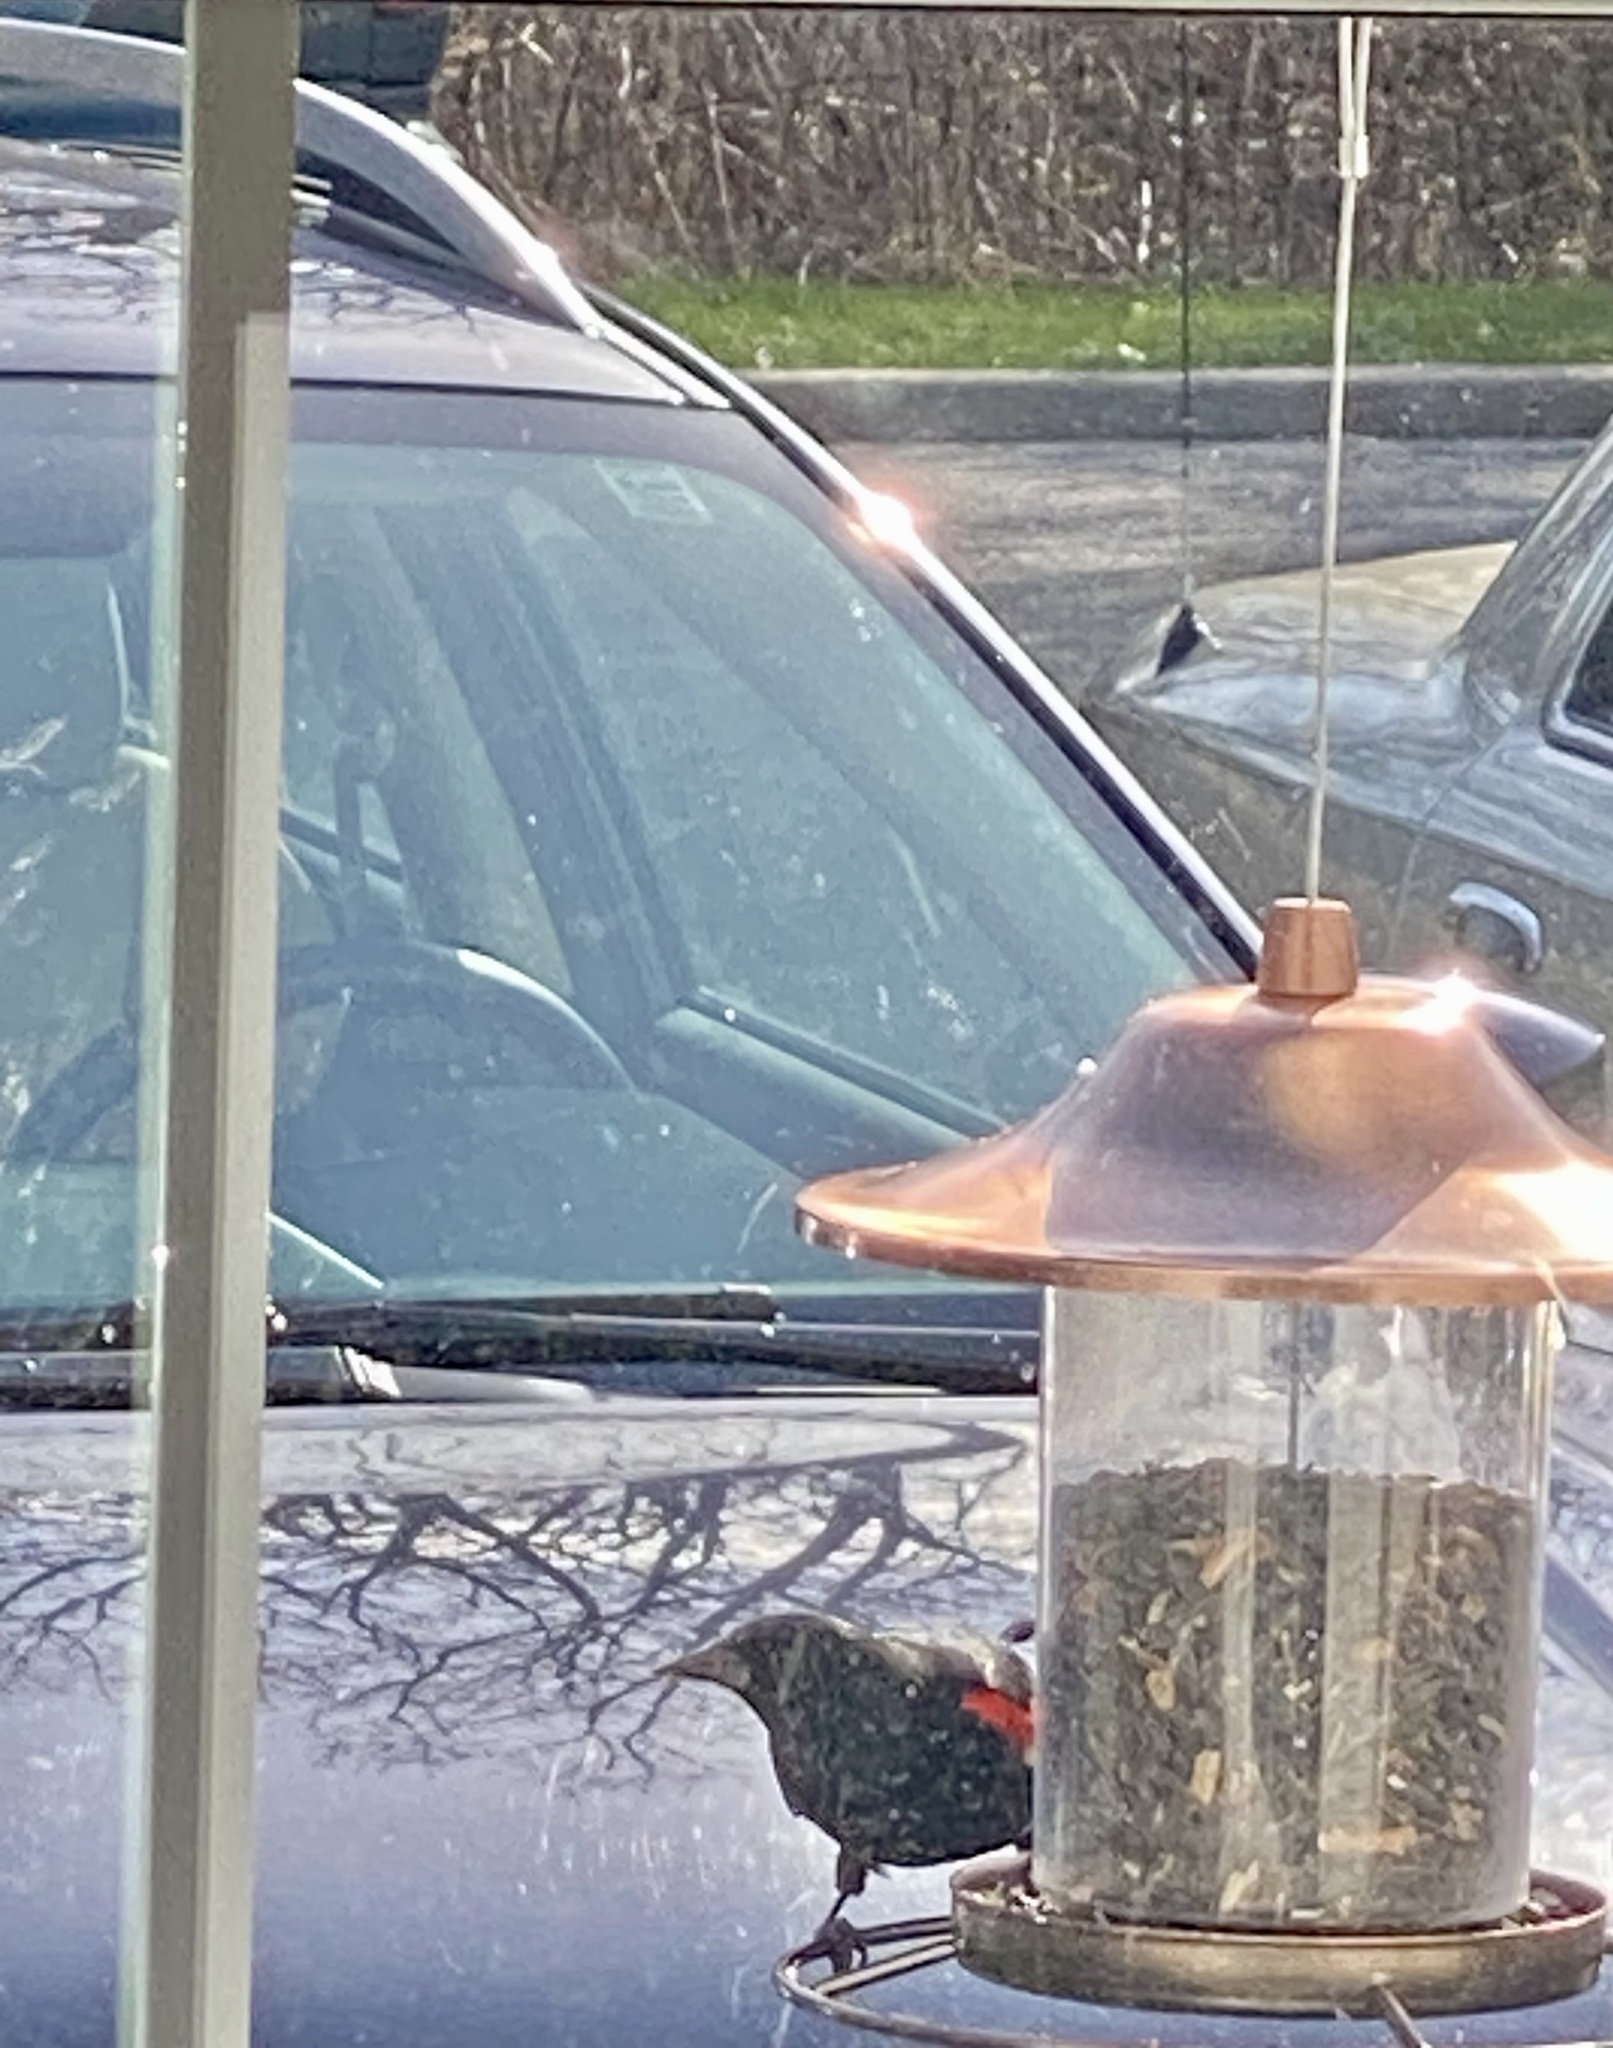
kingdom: Animalia
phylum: Chordata
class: Aves
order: Passeriformes
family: Icteridae
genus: Agelaius
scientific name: Agelaius phoeniceus
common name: Red-winged blackbird
